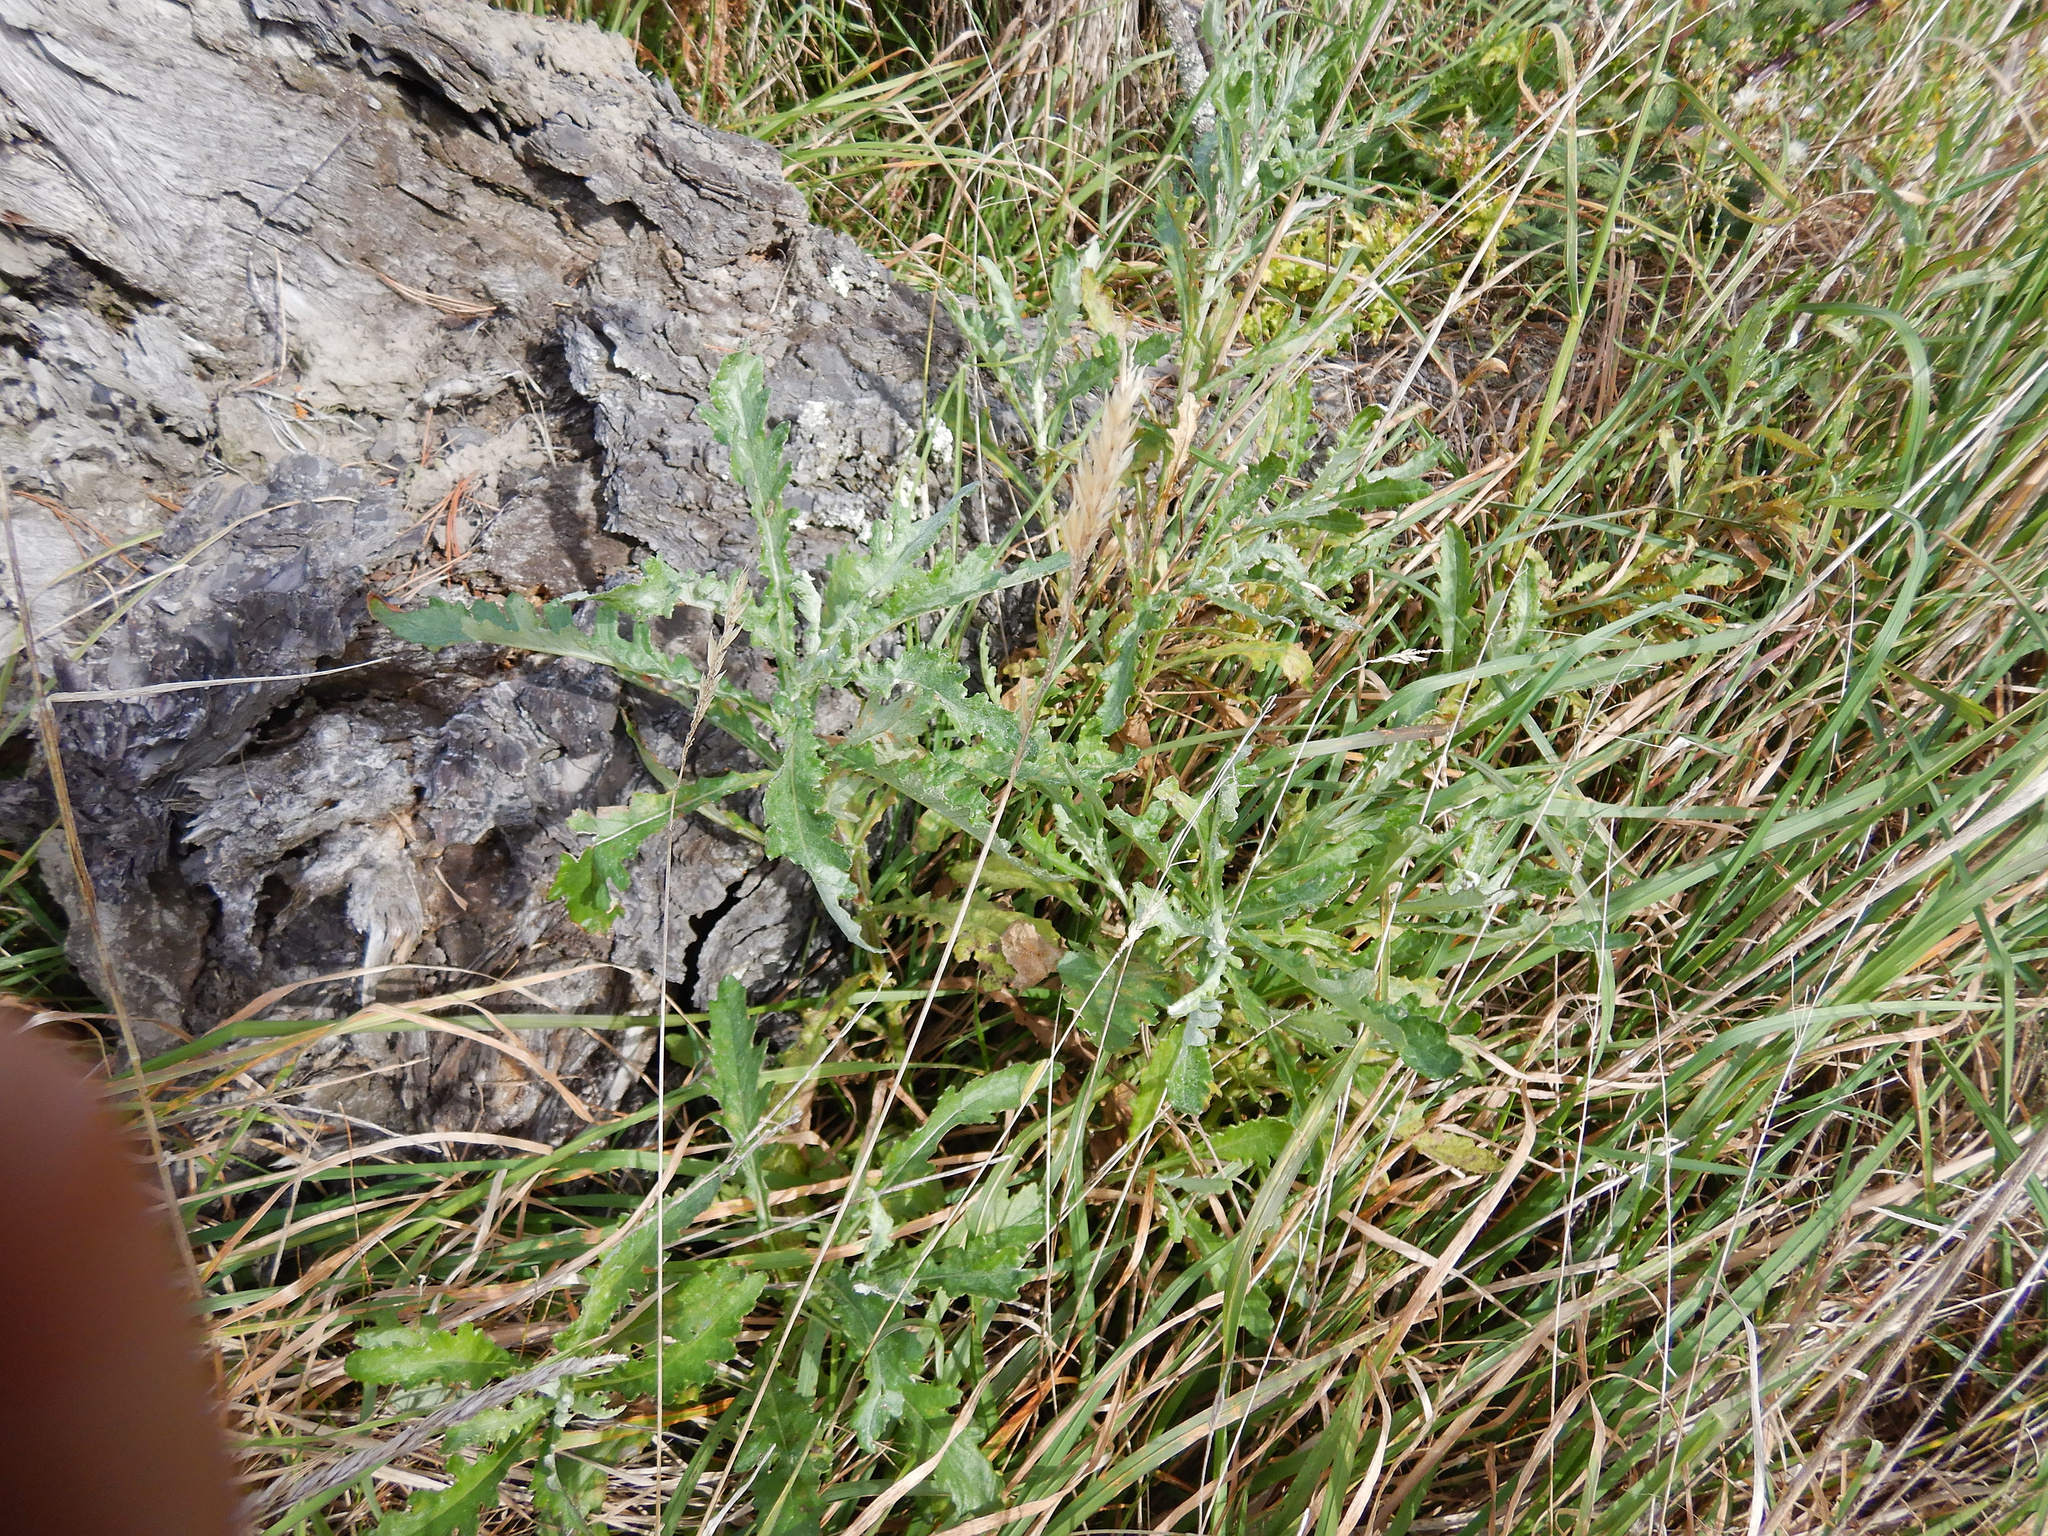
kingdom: Plantae
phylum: Tracheophyta
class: Magnoliopsida
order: Asterales
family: Asteraceae
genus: Senecio
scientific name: Senecio glomeratus
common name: Cutleaf burnweed
